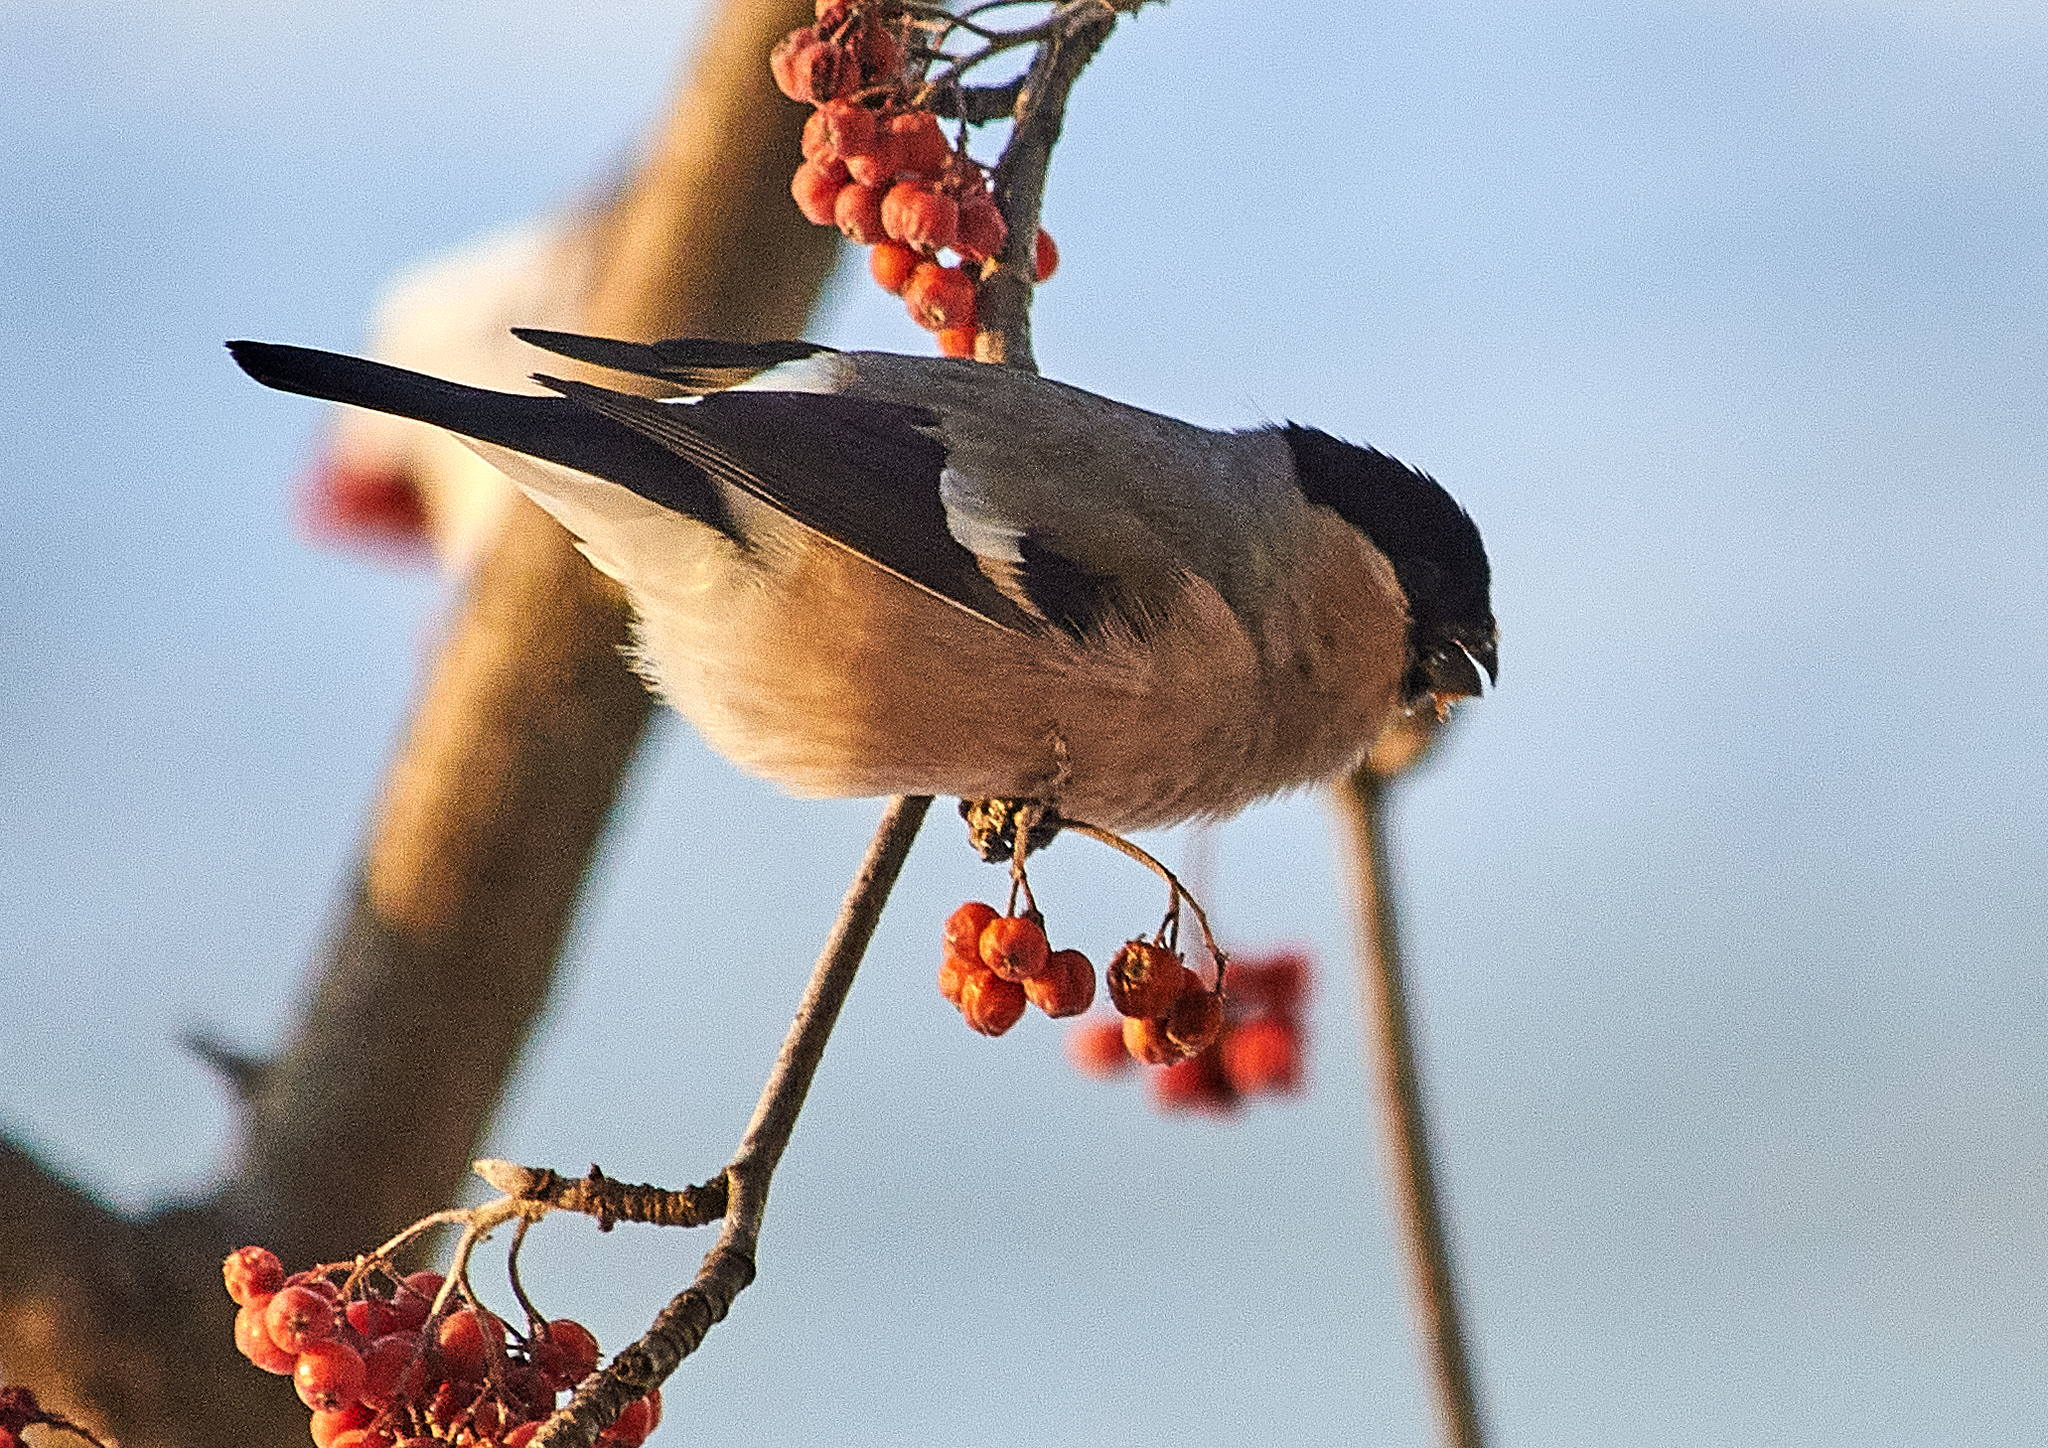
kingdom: Animalia
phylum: Chordata
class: Aves
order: Passeriformes
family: Fringillidae
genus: Pyrrhula
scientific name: Pyrrhula pyrrhula
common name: Eurasian bullfinch
